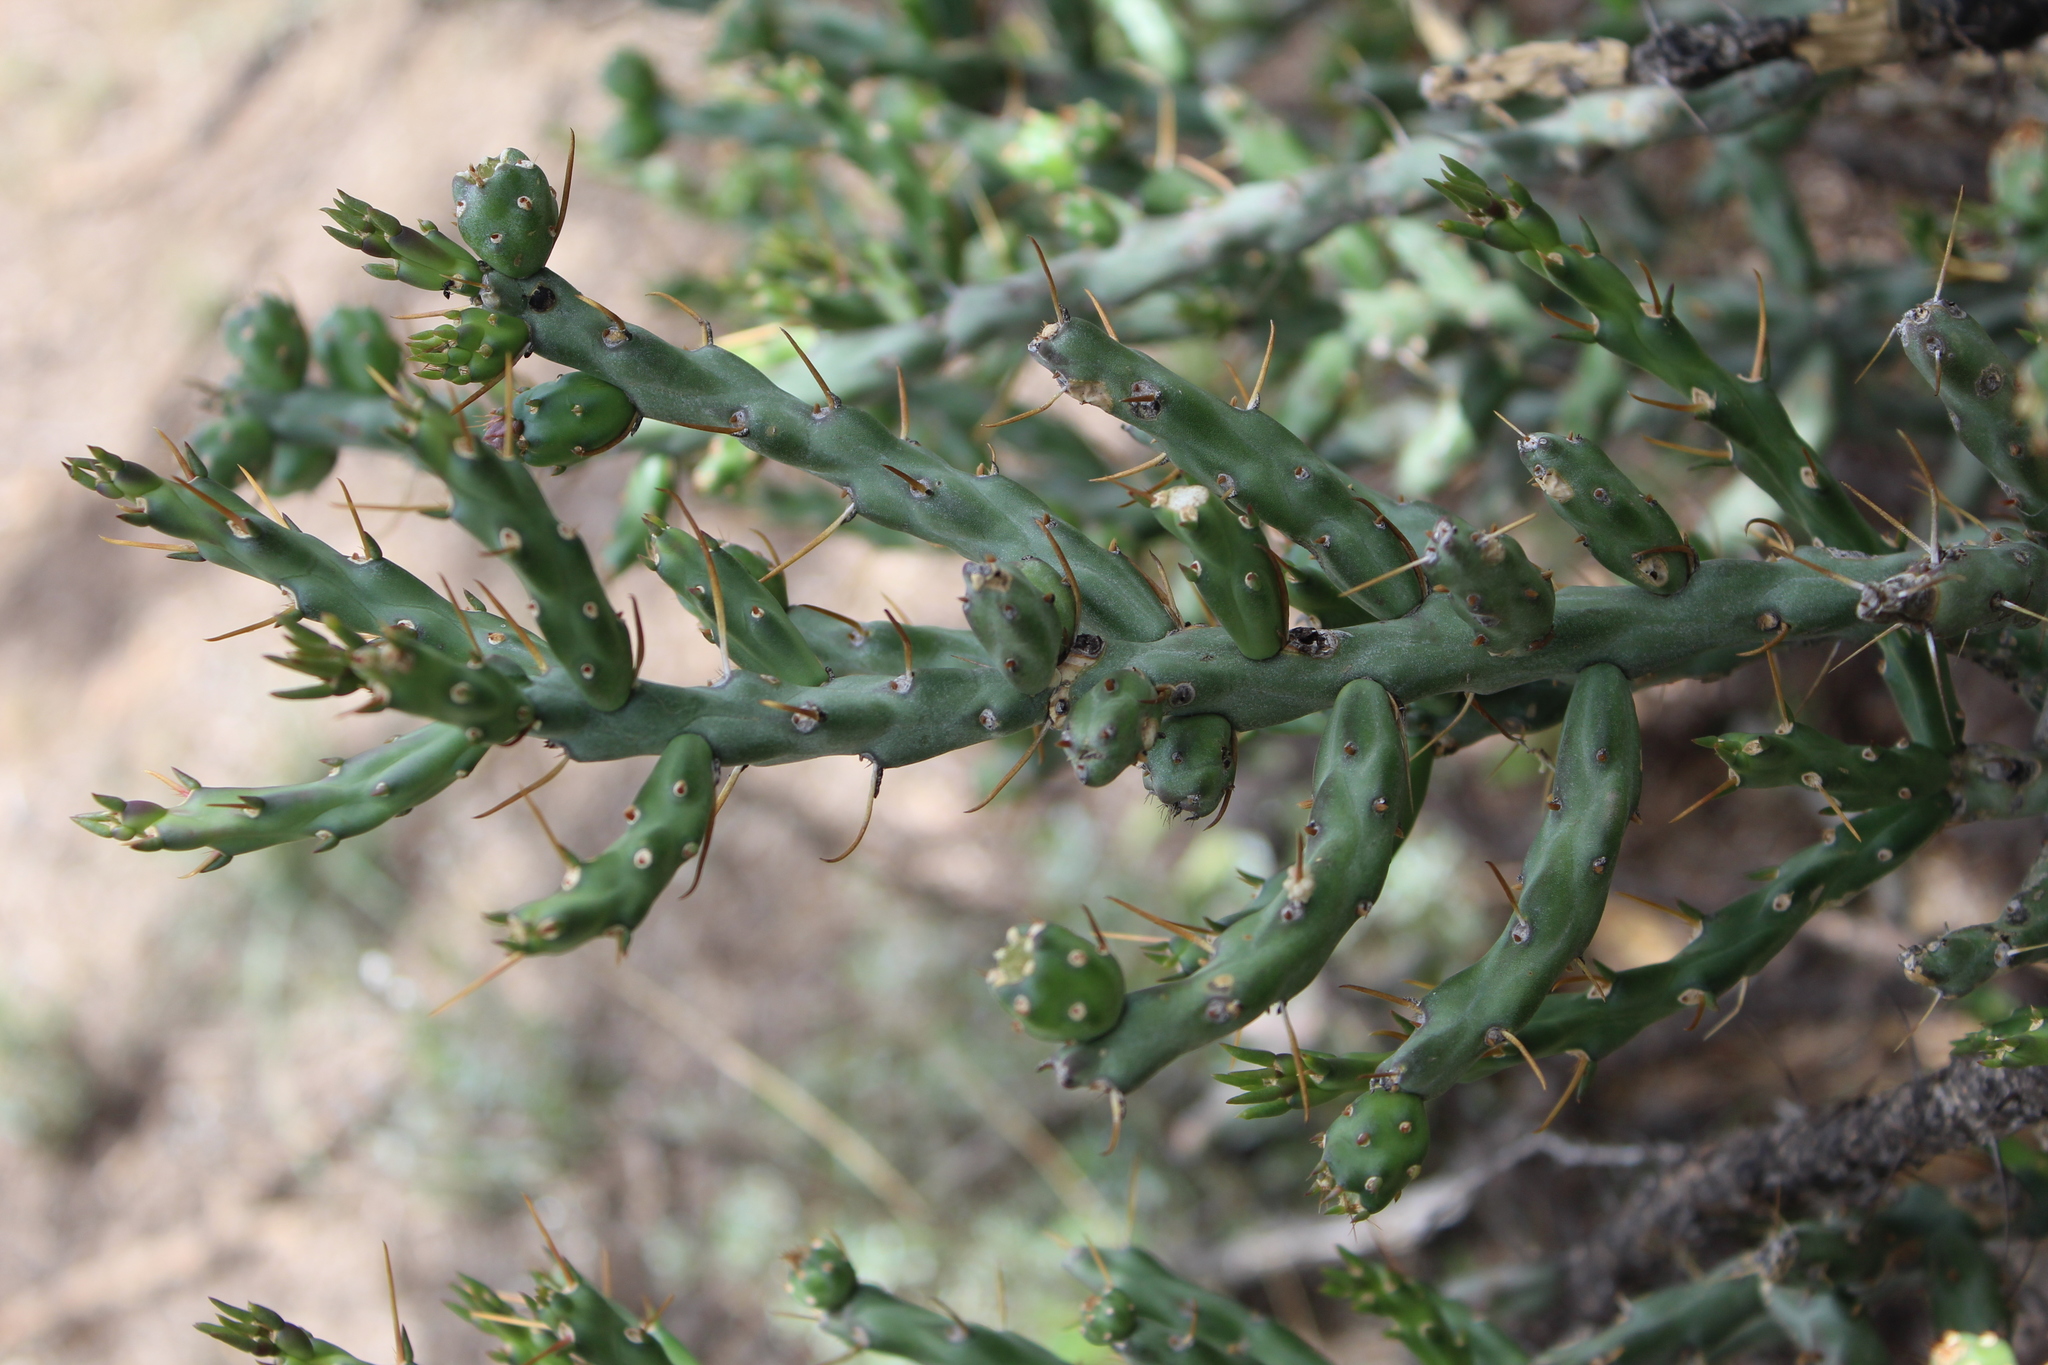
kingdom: Plantae
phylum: Tracheophyta
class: Magnoliopsida
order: Caryophyllales
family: Cactaceae
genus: Cylindropuntia
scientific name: Cylindropuntia leptocaulis
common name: Christmas cactus
